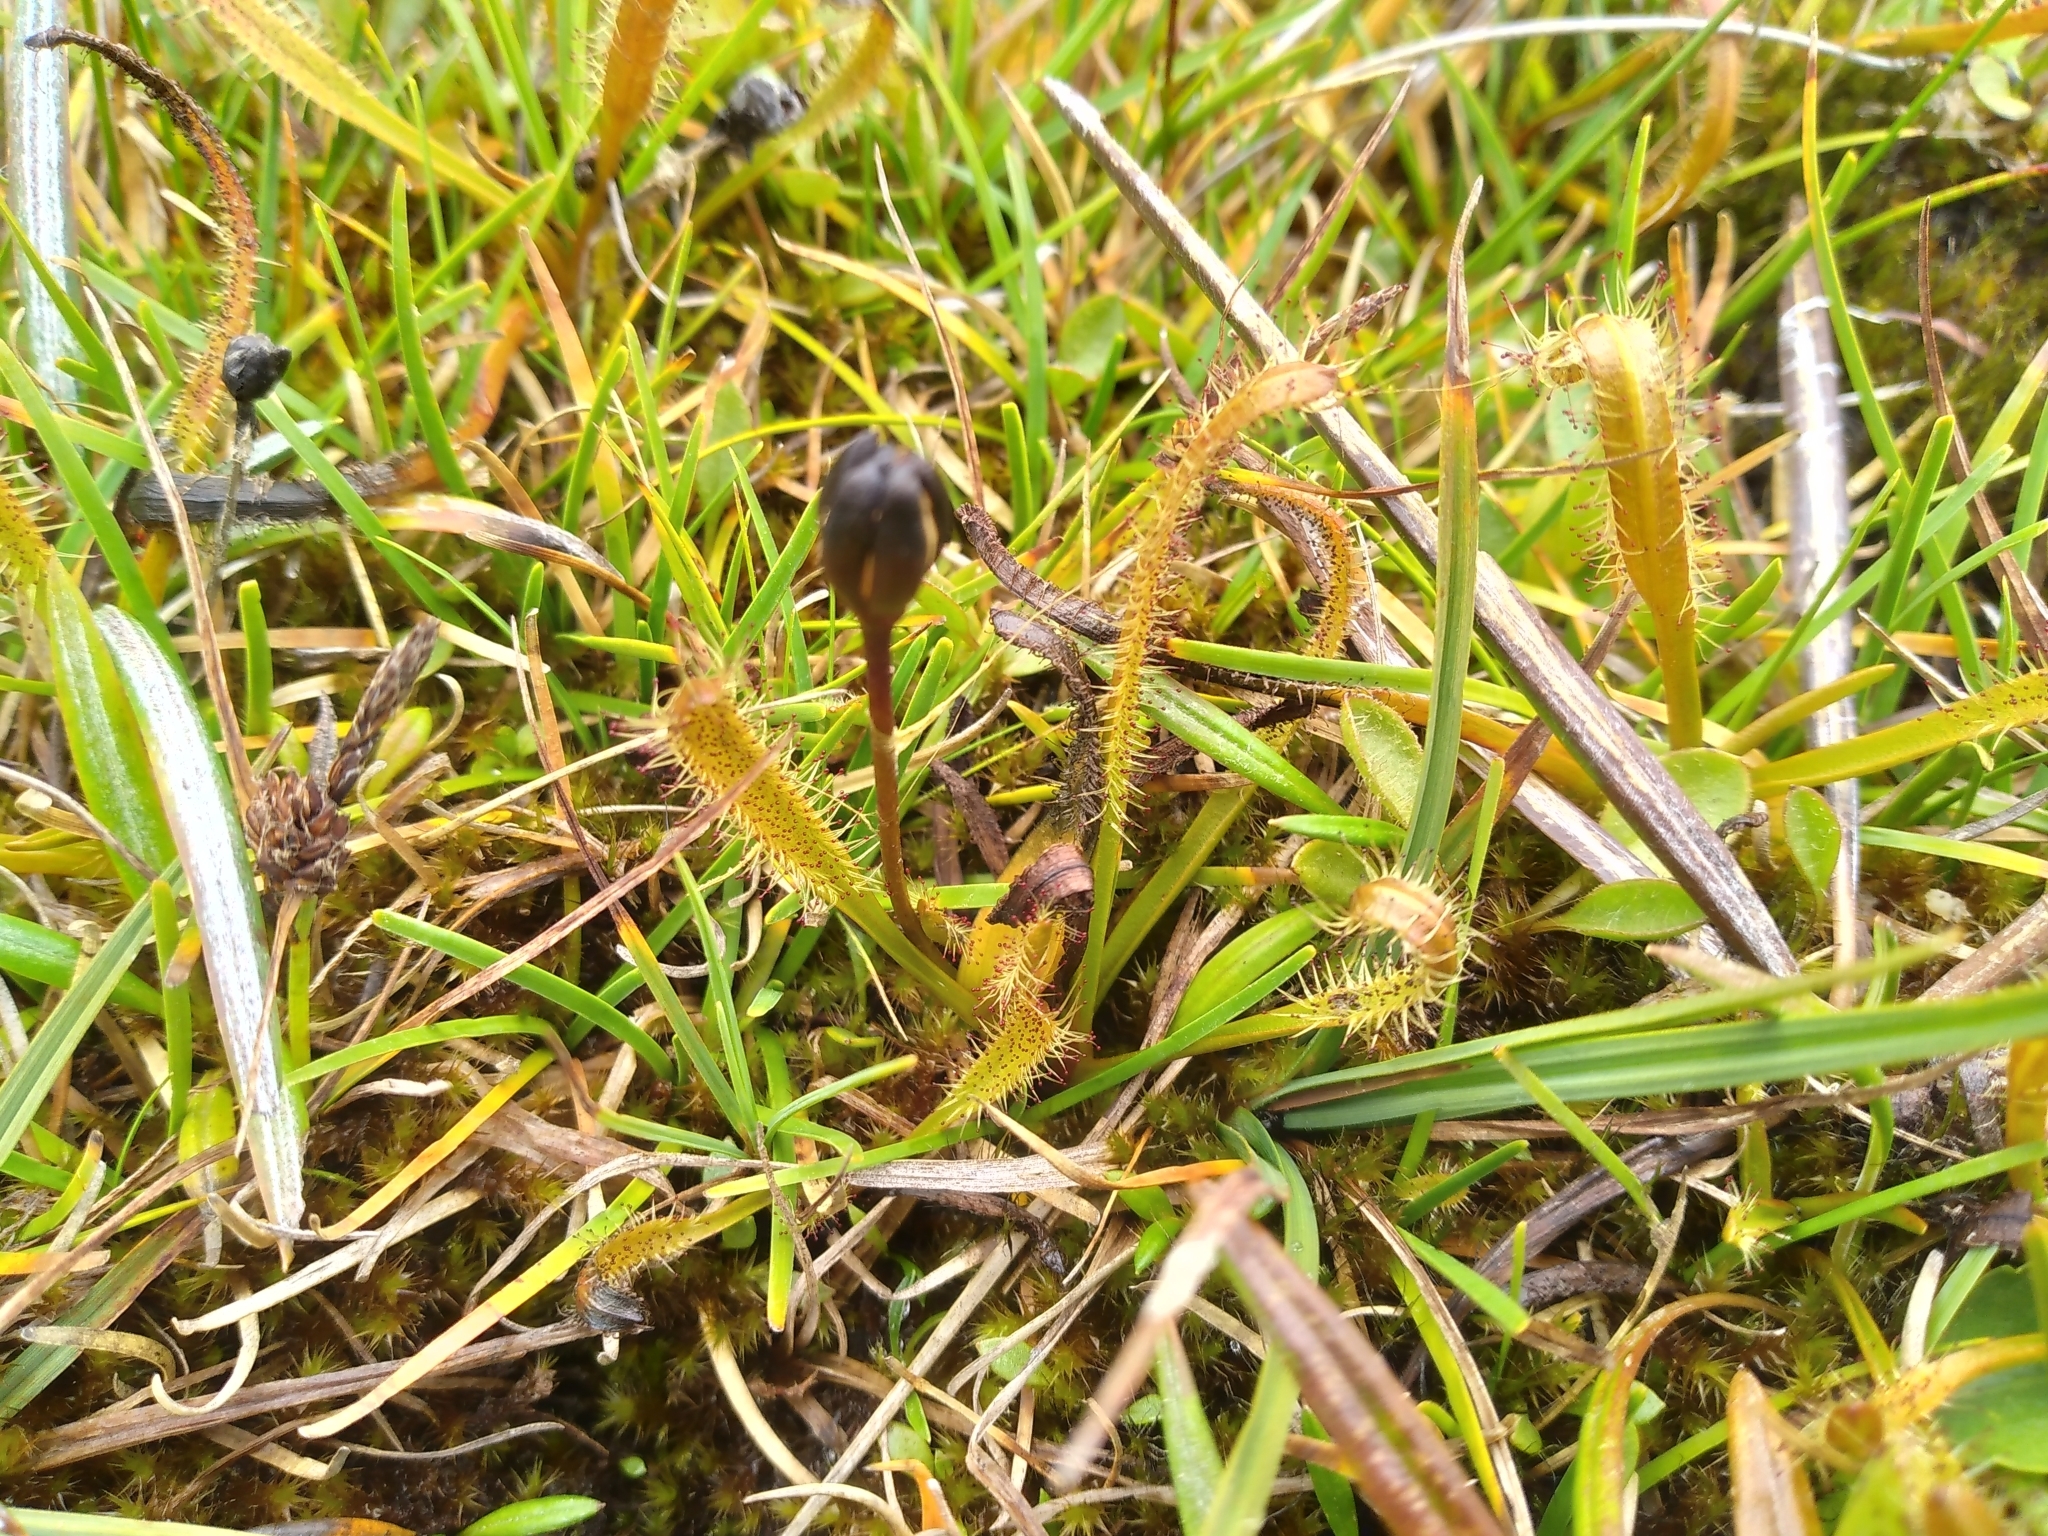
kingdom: Plantae
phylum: Tracheophyta
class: Magnoliopsida
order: Caryophyllales
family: Droseraceae
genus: Drosera
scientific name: Drosera arcturi
